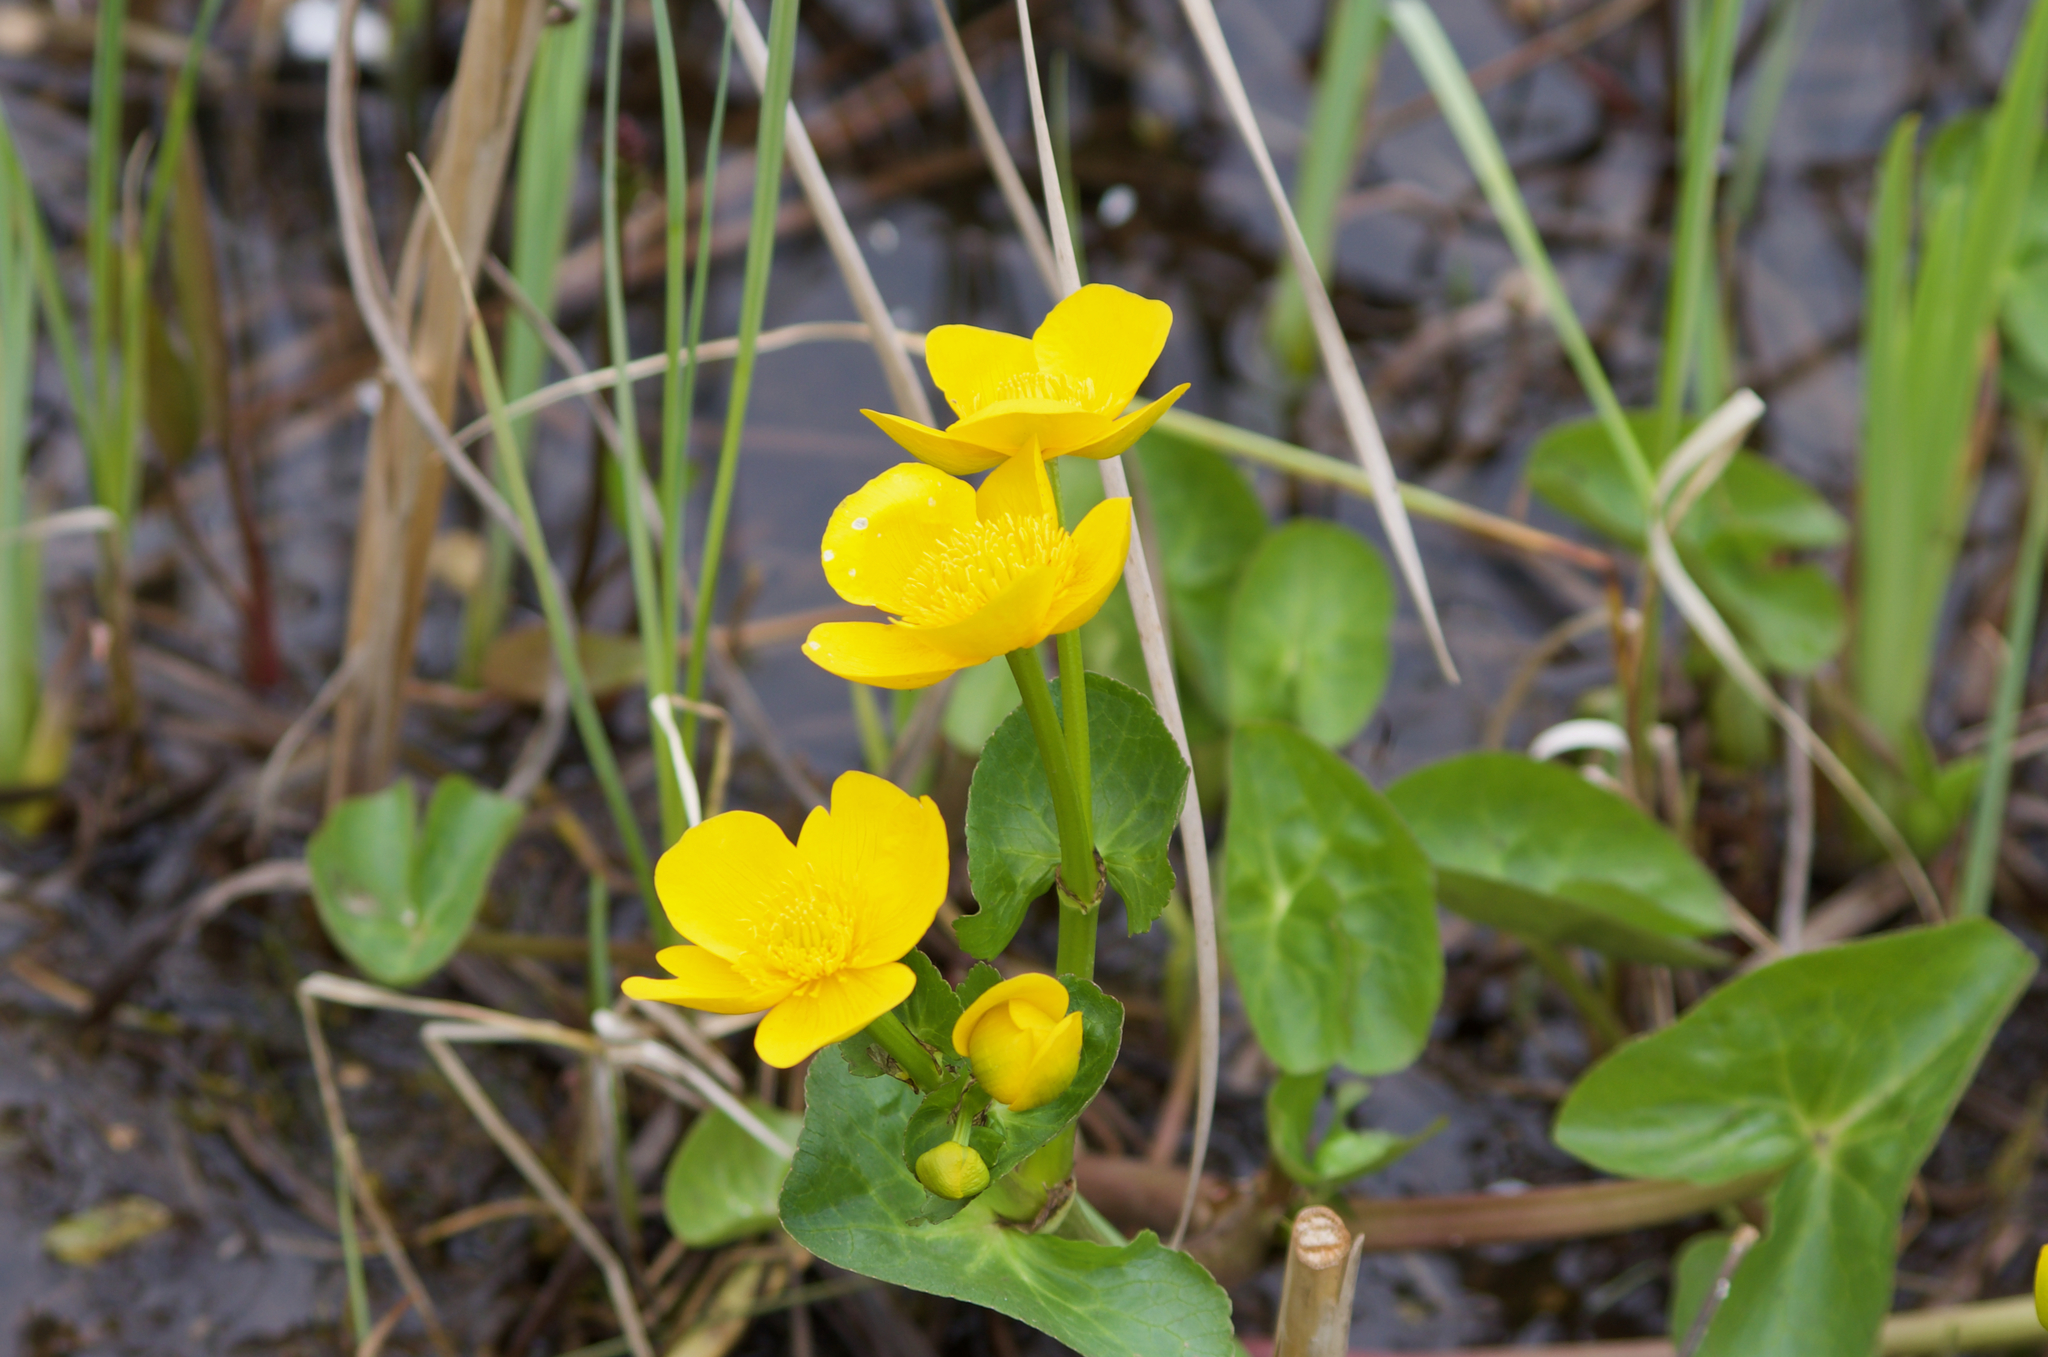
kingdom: Plantae
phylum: Tracheophyta
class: Magnoliopsida
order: Ranunculales
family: Ranunculaceae
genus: Caltha
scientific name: Caltha palustris
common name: Marsh marigold
